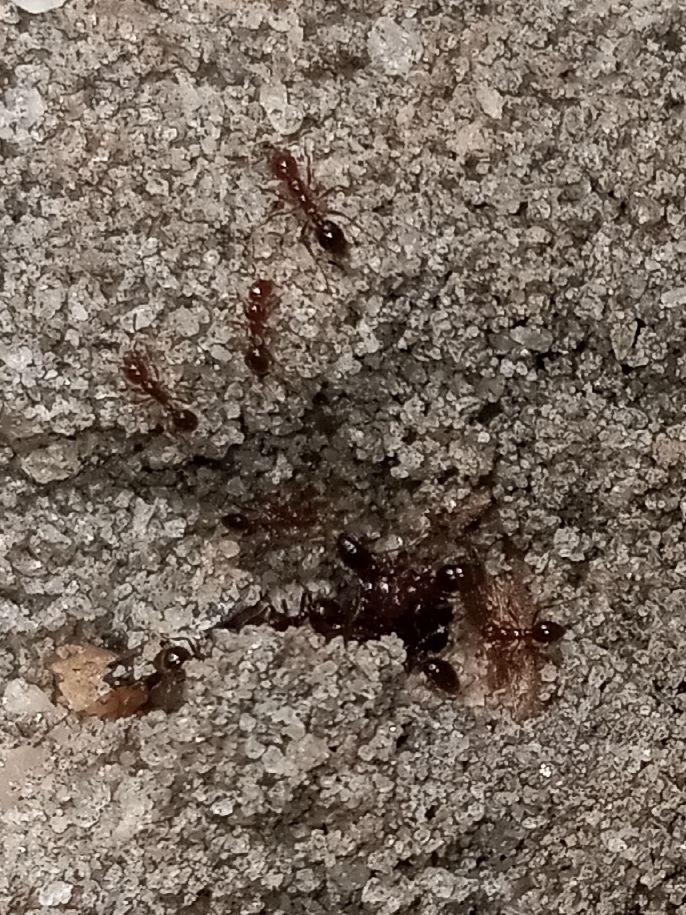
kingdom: Animalia
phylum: Arthropoda
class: Insecta
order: Hymenoptera
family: Formicidae
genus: Solenopsis
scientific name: Solenopsis invicta
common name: Red imported fire ant
